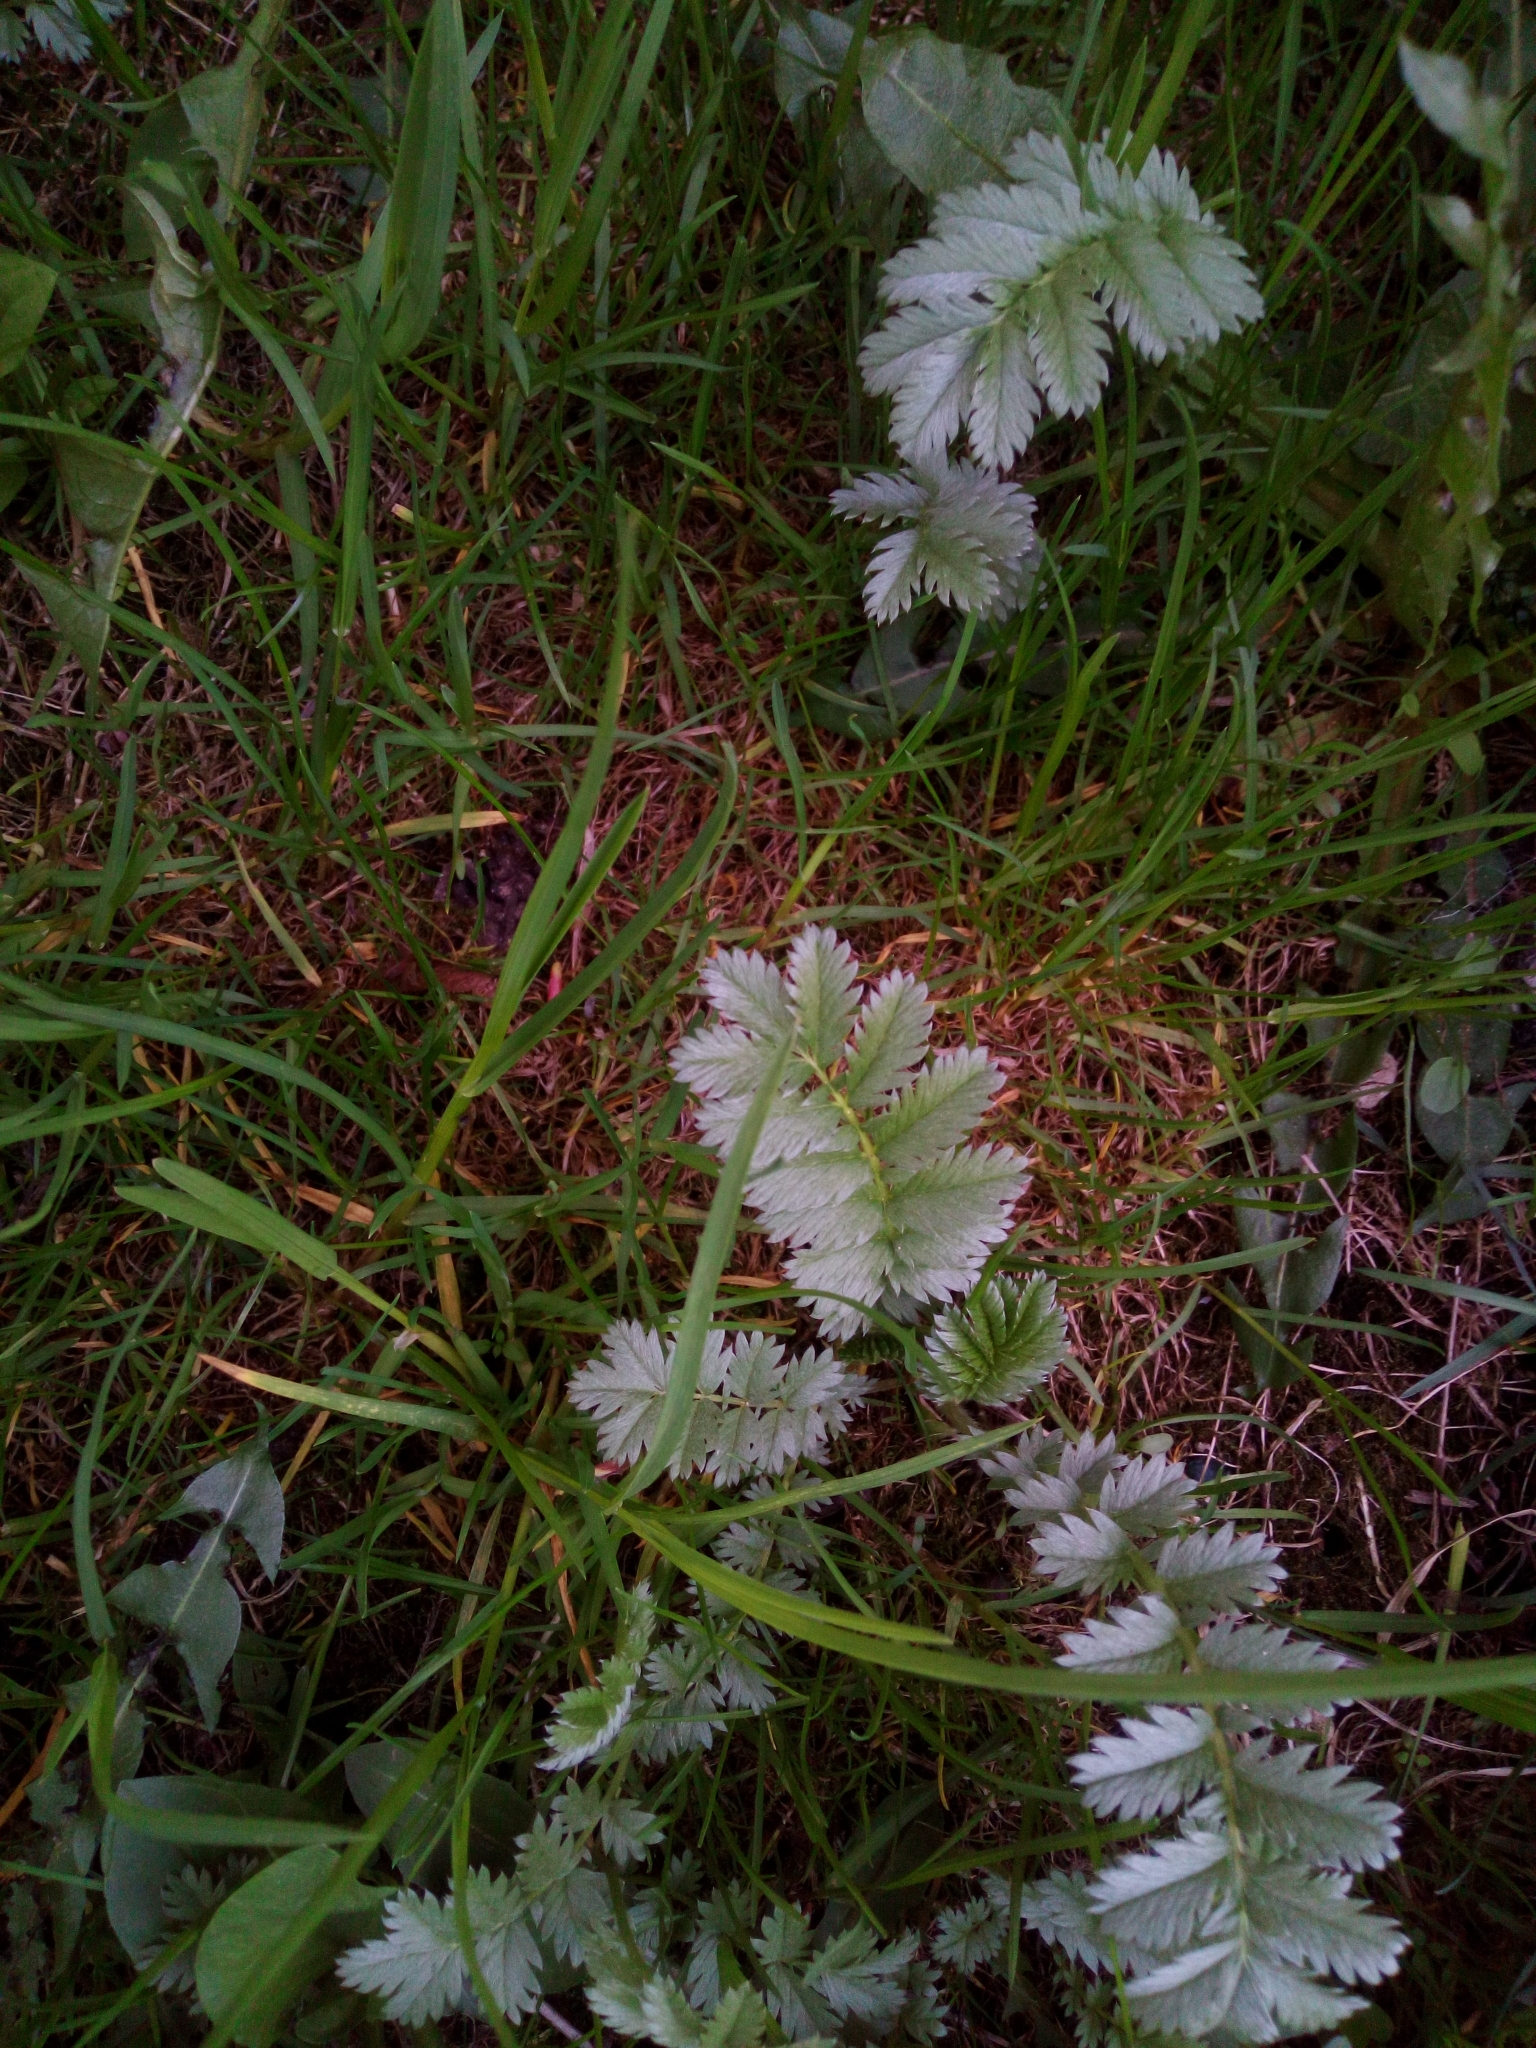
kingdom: Plantae
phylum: Tracheophyta
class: Magnoliopsida
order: Rosales
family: Rosaceae
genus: Argentina
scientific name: Argentina anserina
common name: Common silverweed
